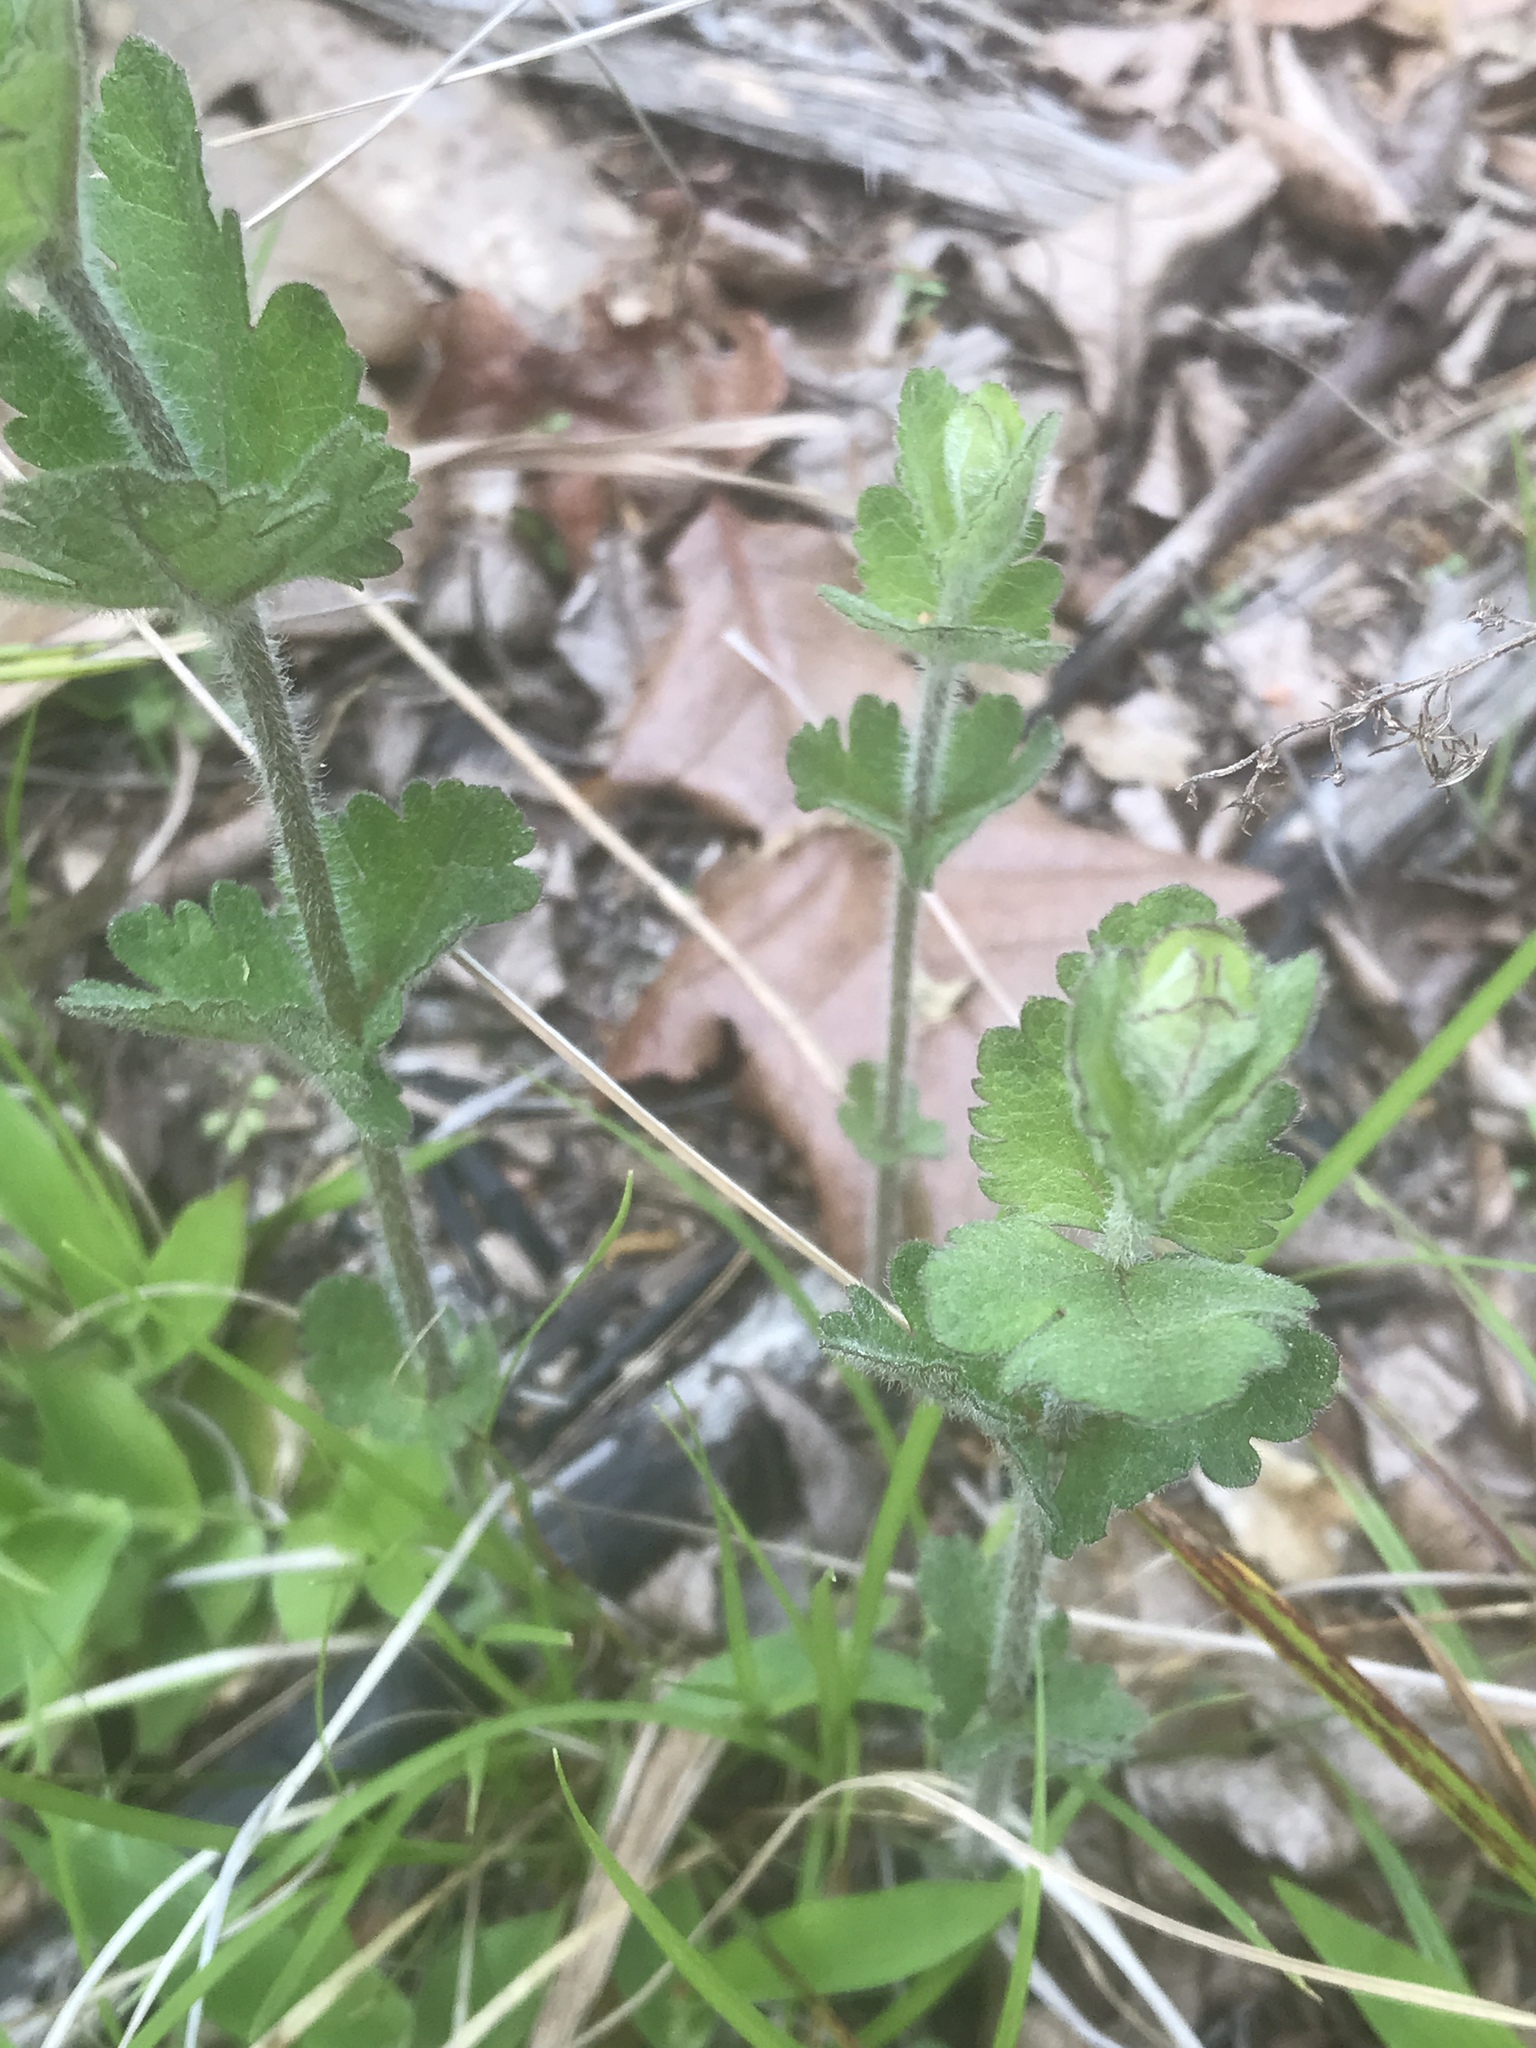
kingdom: Plantae
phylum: Tracheophyta
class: Magnoliopsida
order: Asterales
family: Asteraceae
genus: Eupatorium
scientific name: Eupatorium rotundifolium
